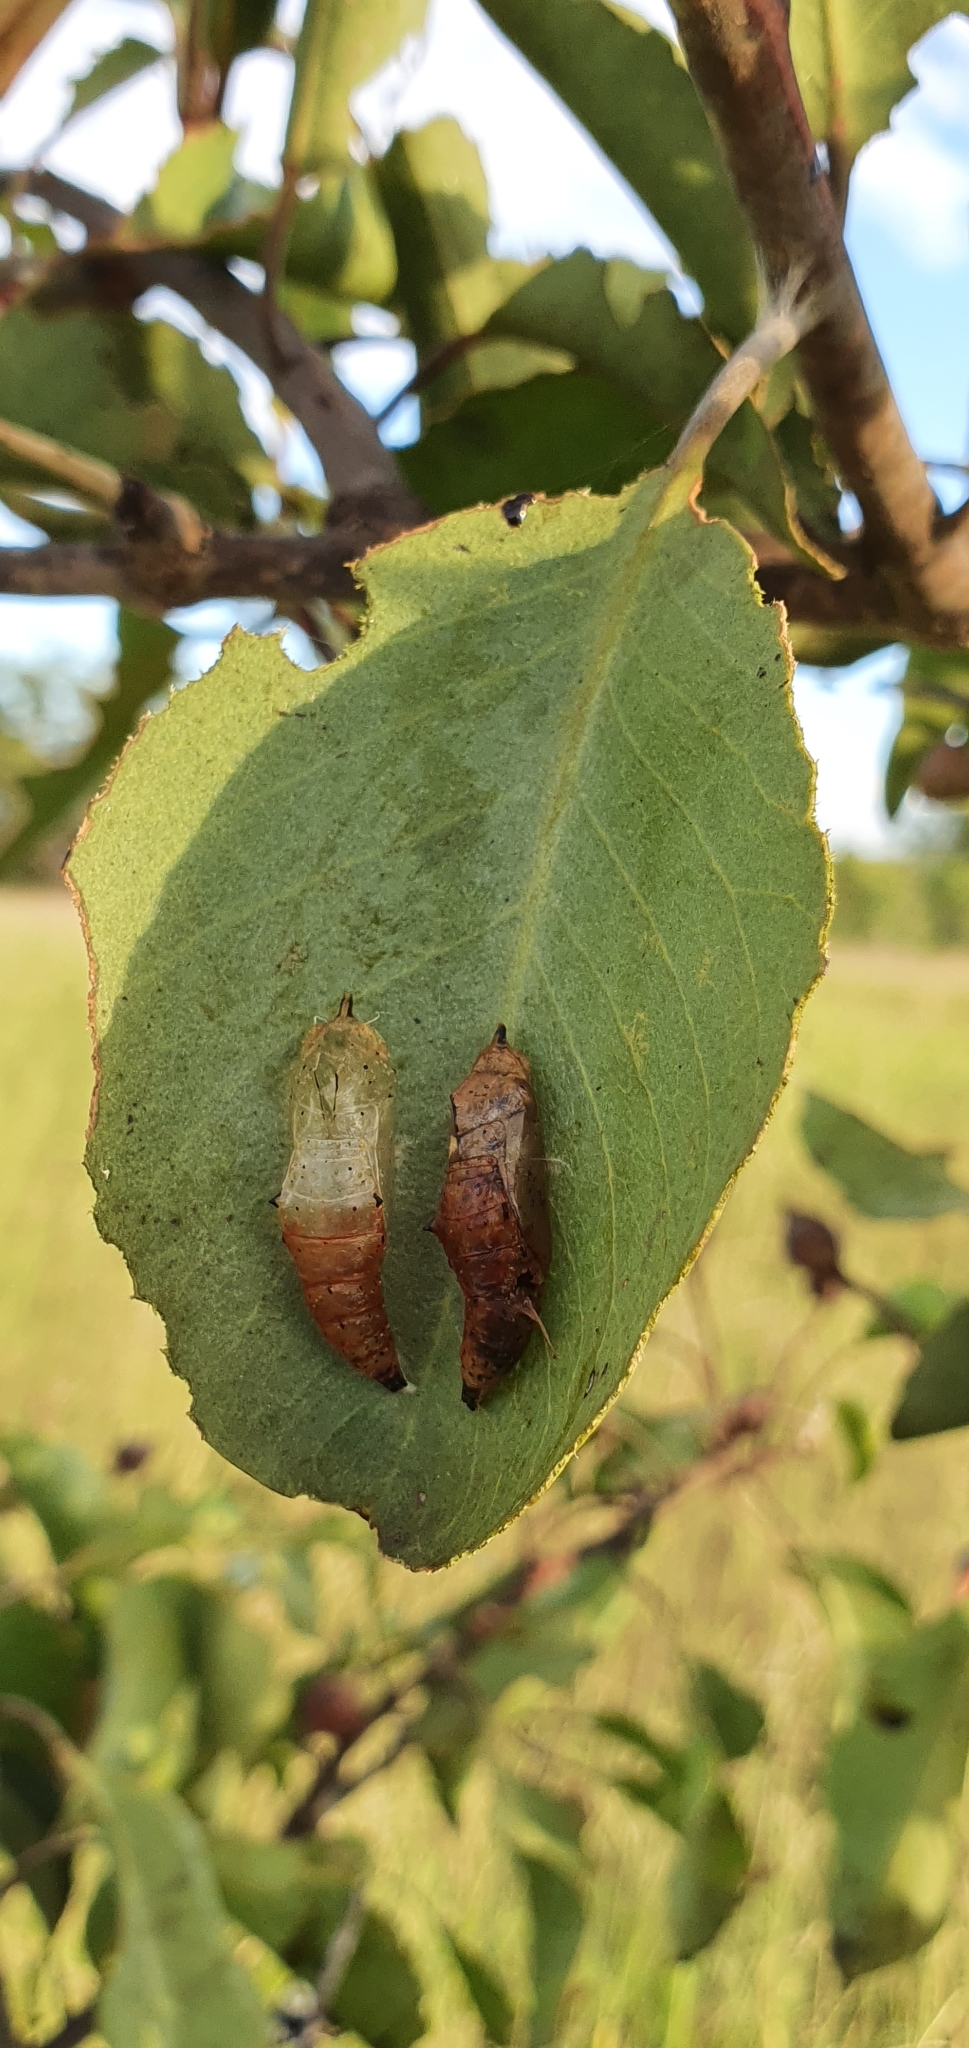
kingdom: Animalia
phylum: Arthropoda
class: Insecta
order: Lepidoptera
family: Pieridae
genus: Belenois
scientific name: Belenois java
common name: Caper white
